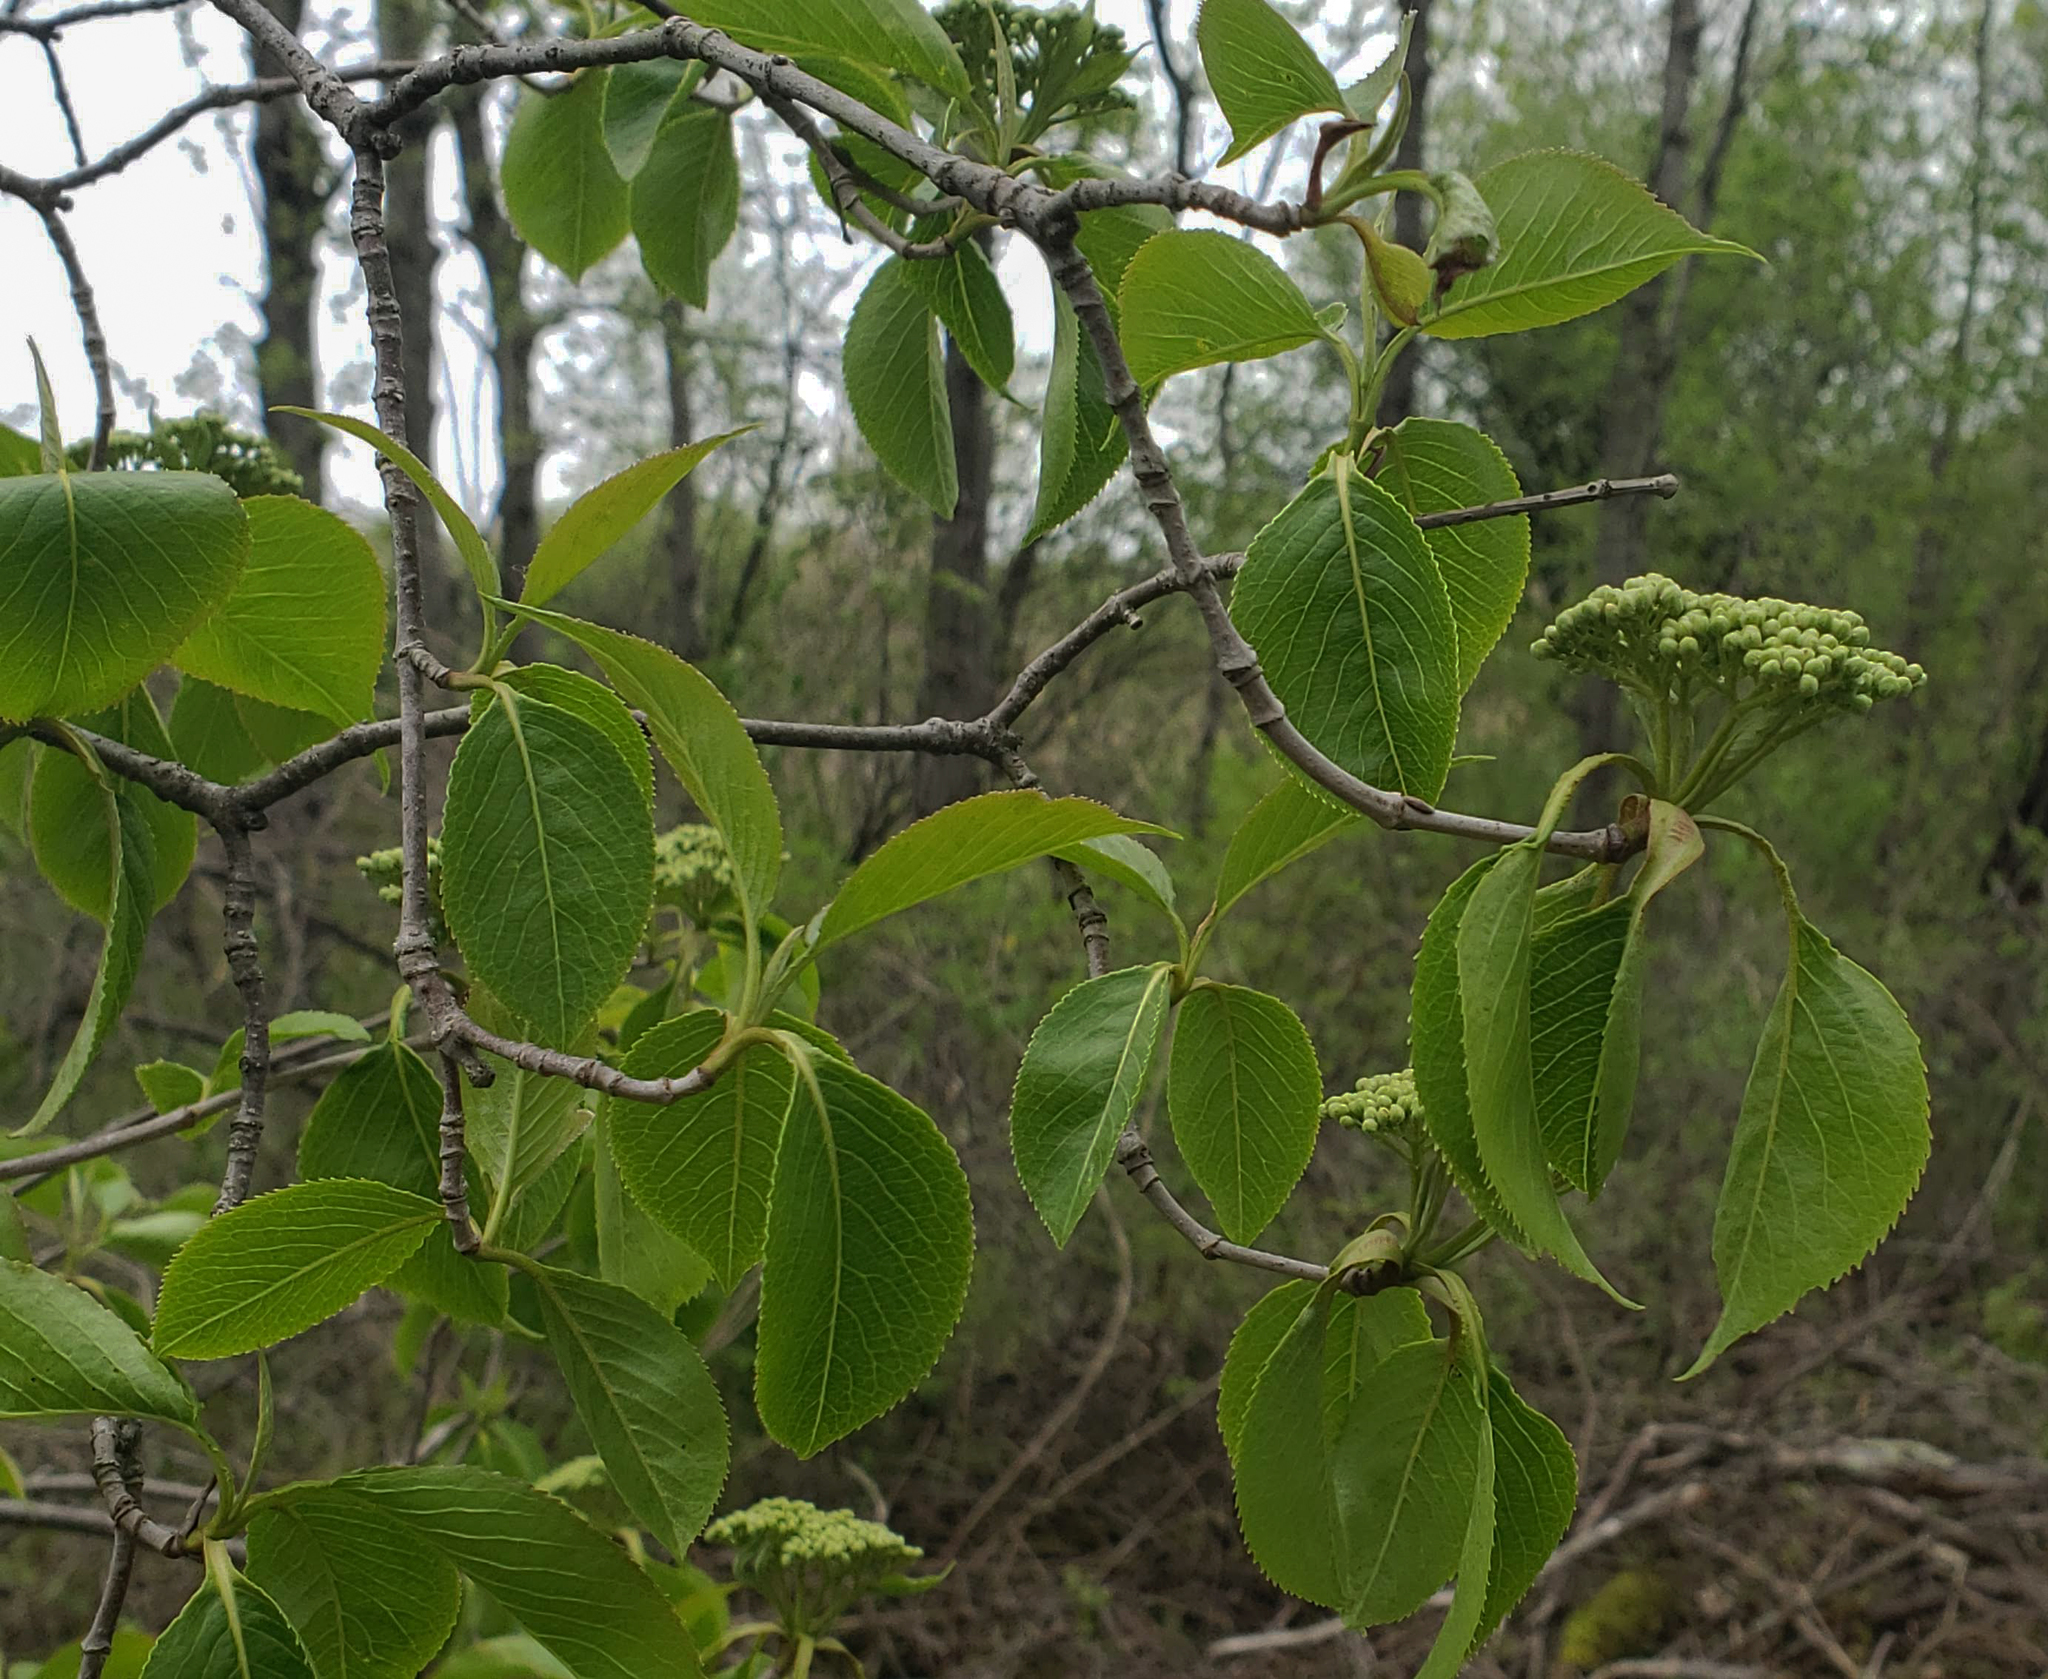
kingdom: Plantae
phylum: Tracheophyta
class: Magnoliopsida
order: Dipsacales
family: Viburnaceae
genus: Viburnum
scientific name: Viburnum lentago
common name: Black haw
